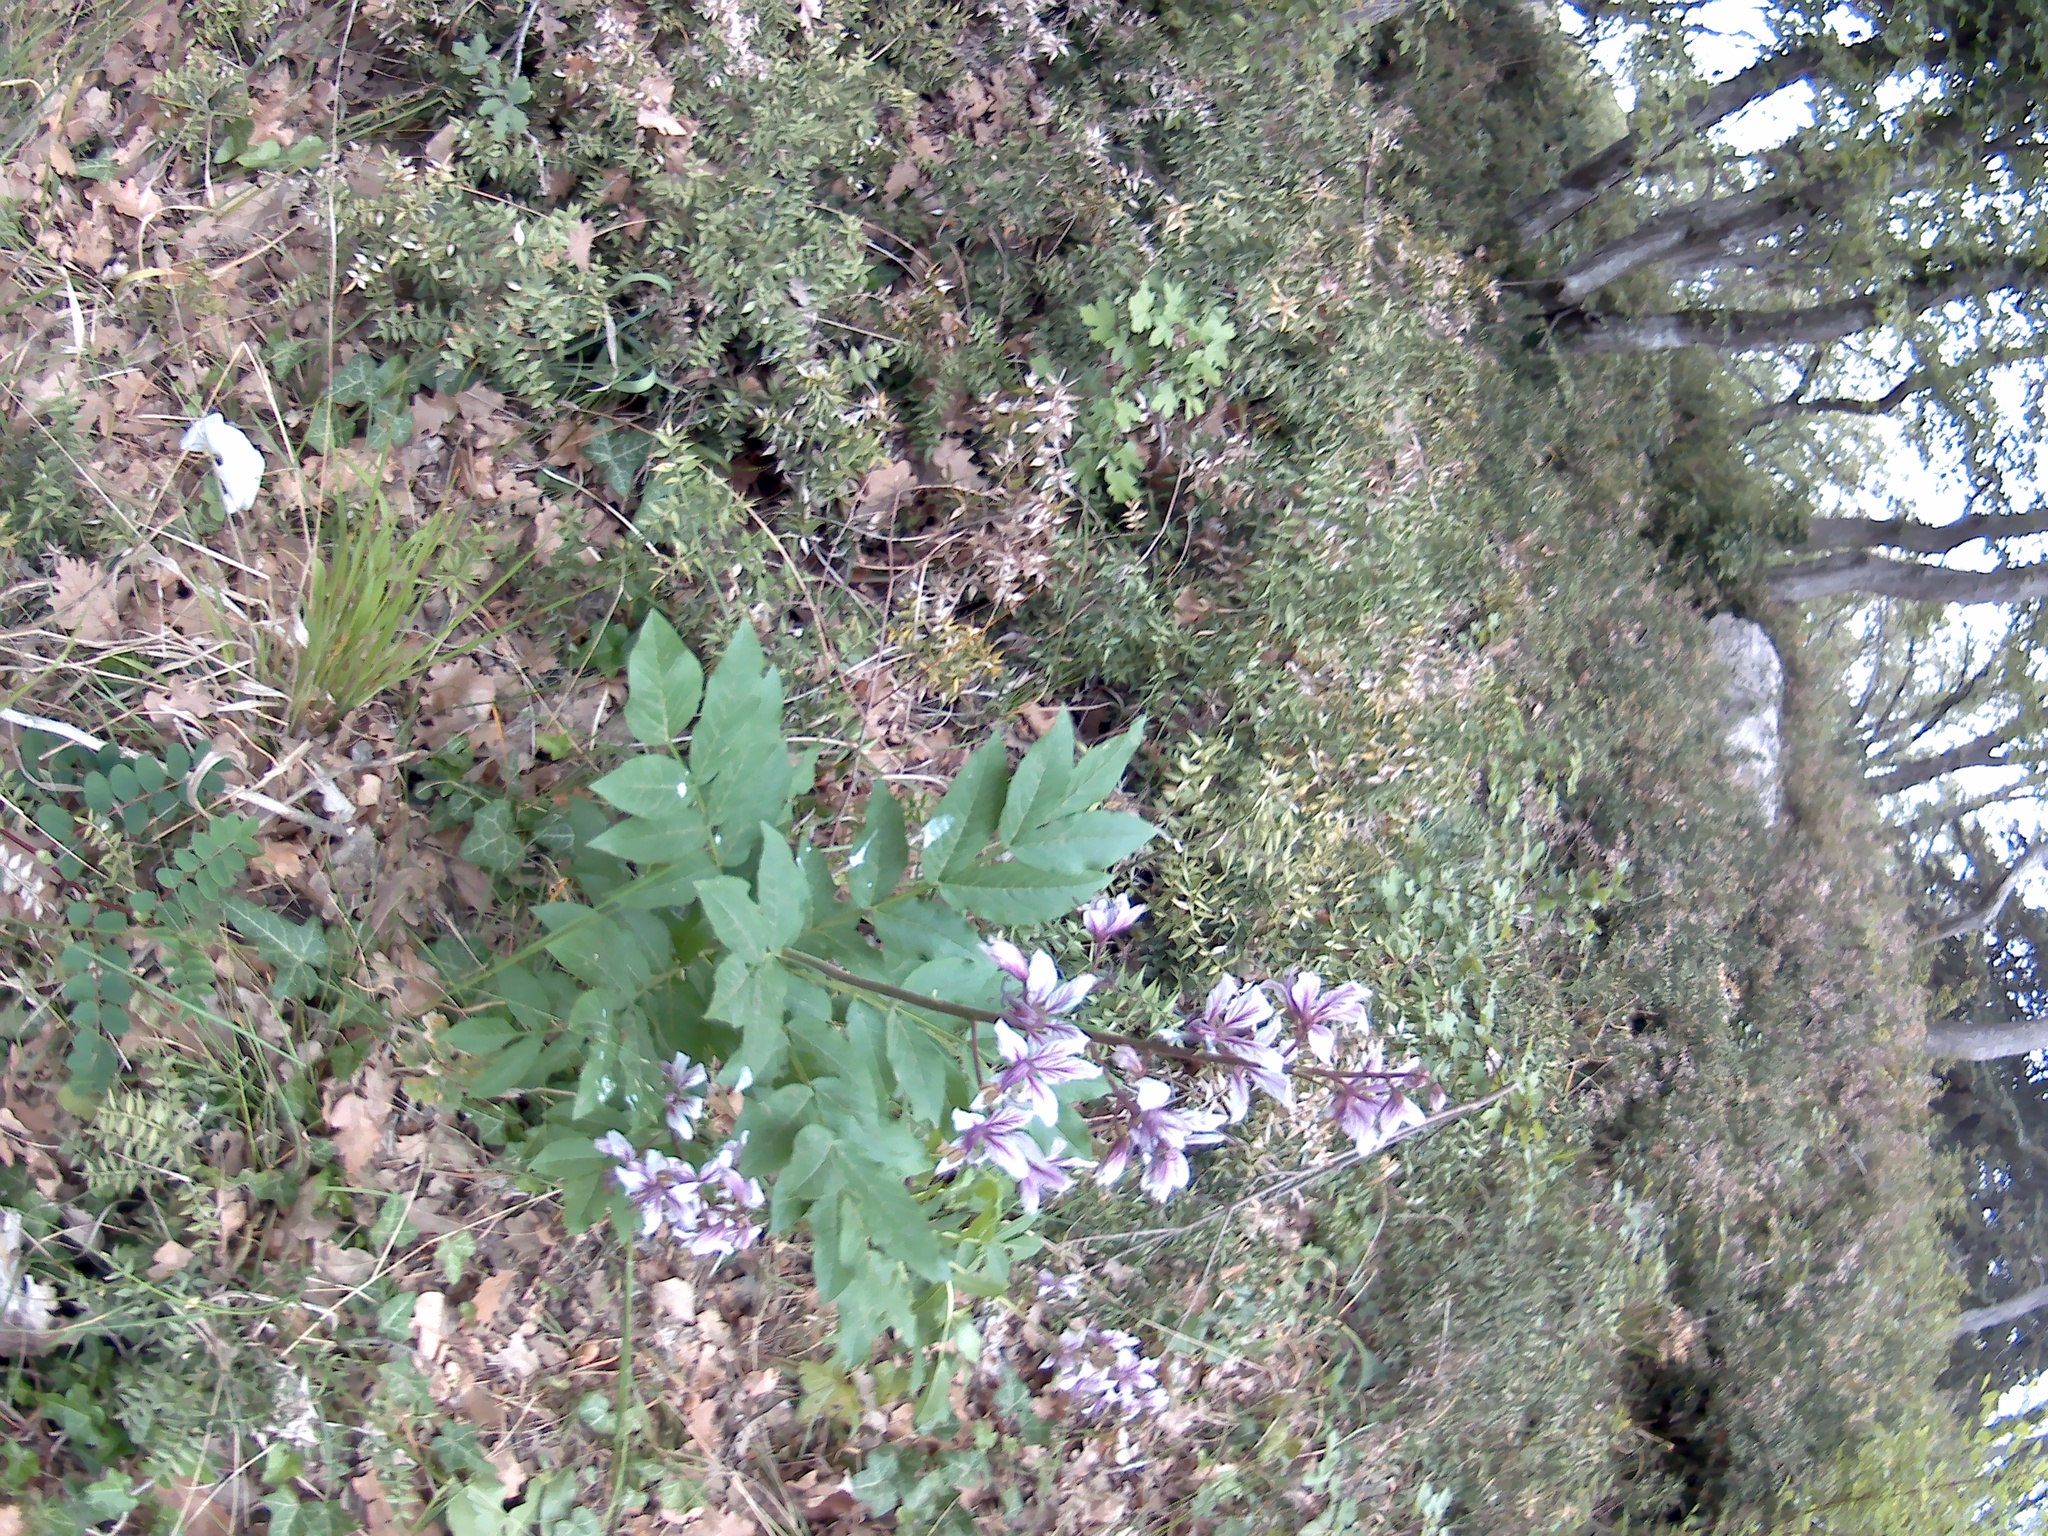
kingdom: Plantae
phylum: Tracheophyta
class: Magnoliopsida
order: Sapindales
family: Rutaceae
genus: Dictamnus
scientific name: Dictamnus albus
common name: Gasplant
